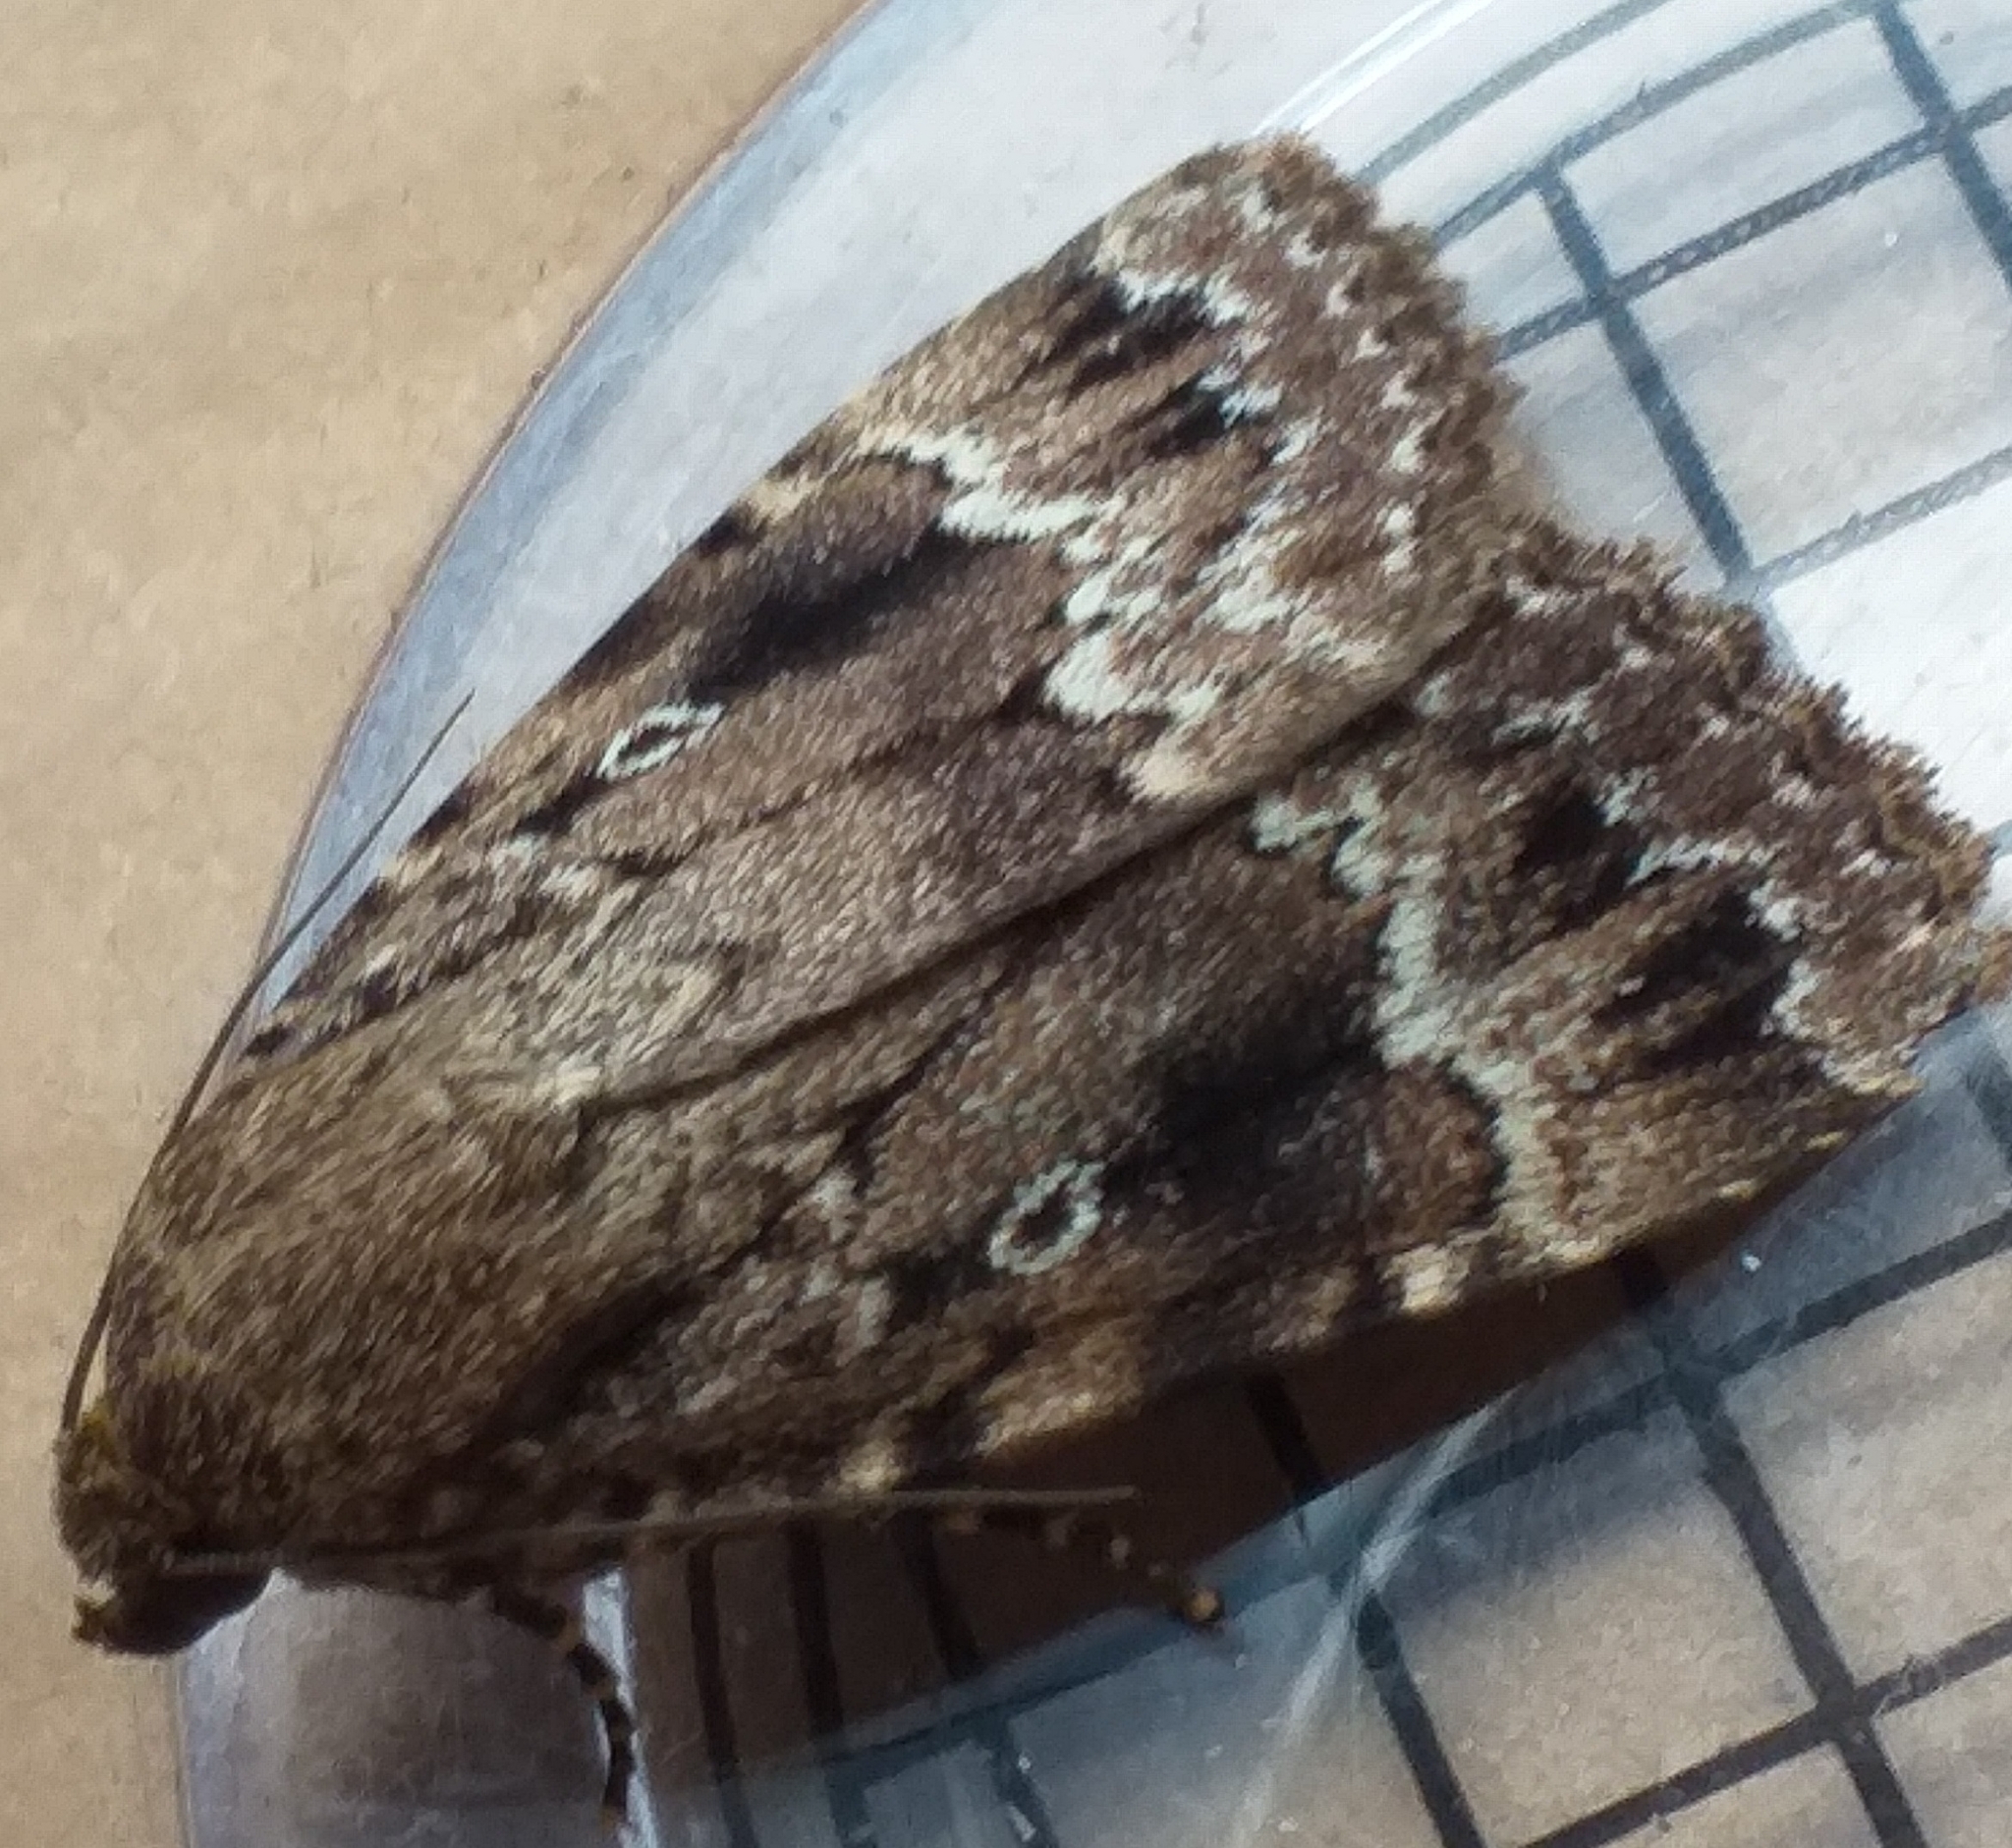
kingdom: Animalia
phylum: Arthropoda
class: Insecta
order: Lepidoptera
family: Noctuidae
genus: Amphipyra
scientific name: Amphipyra pyramidea
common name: Copper underwing
